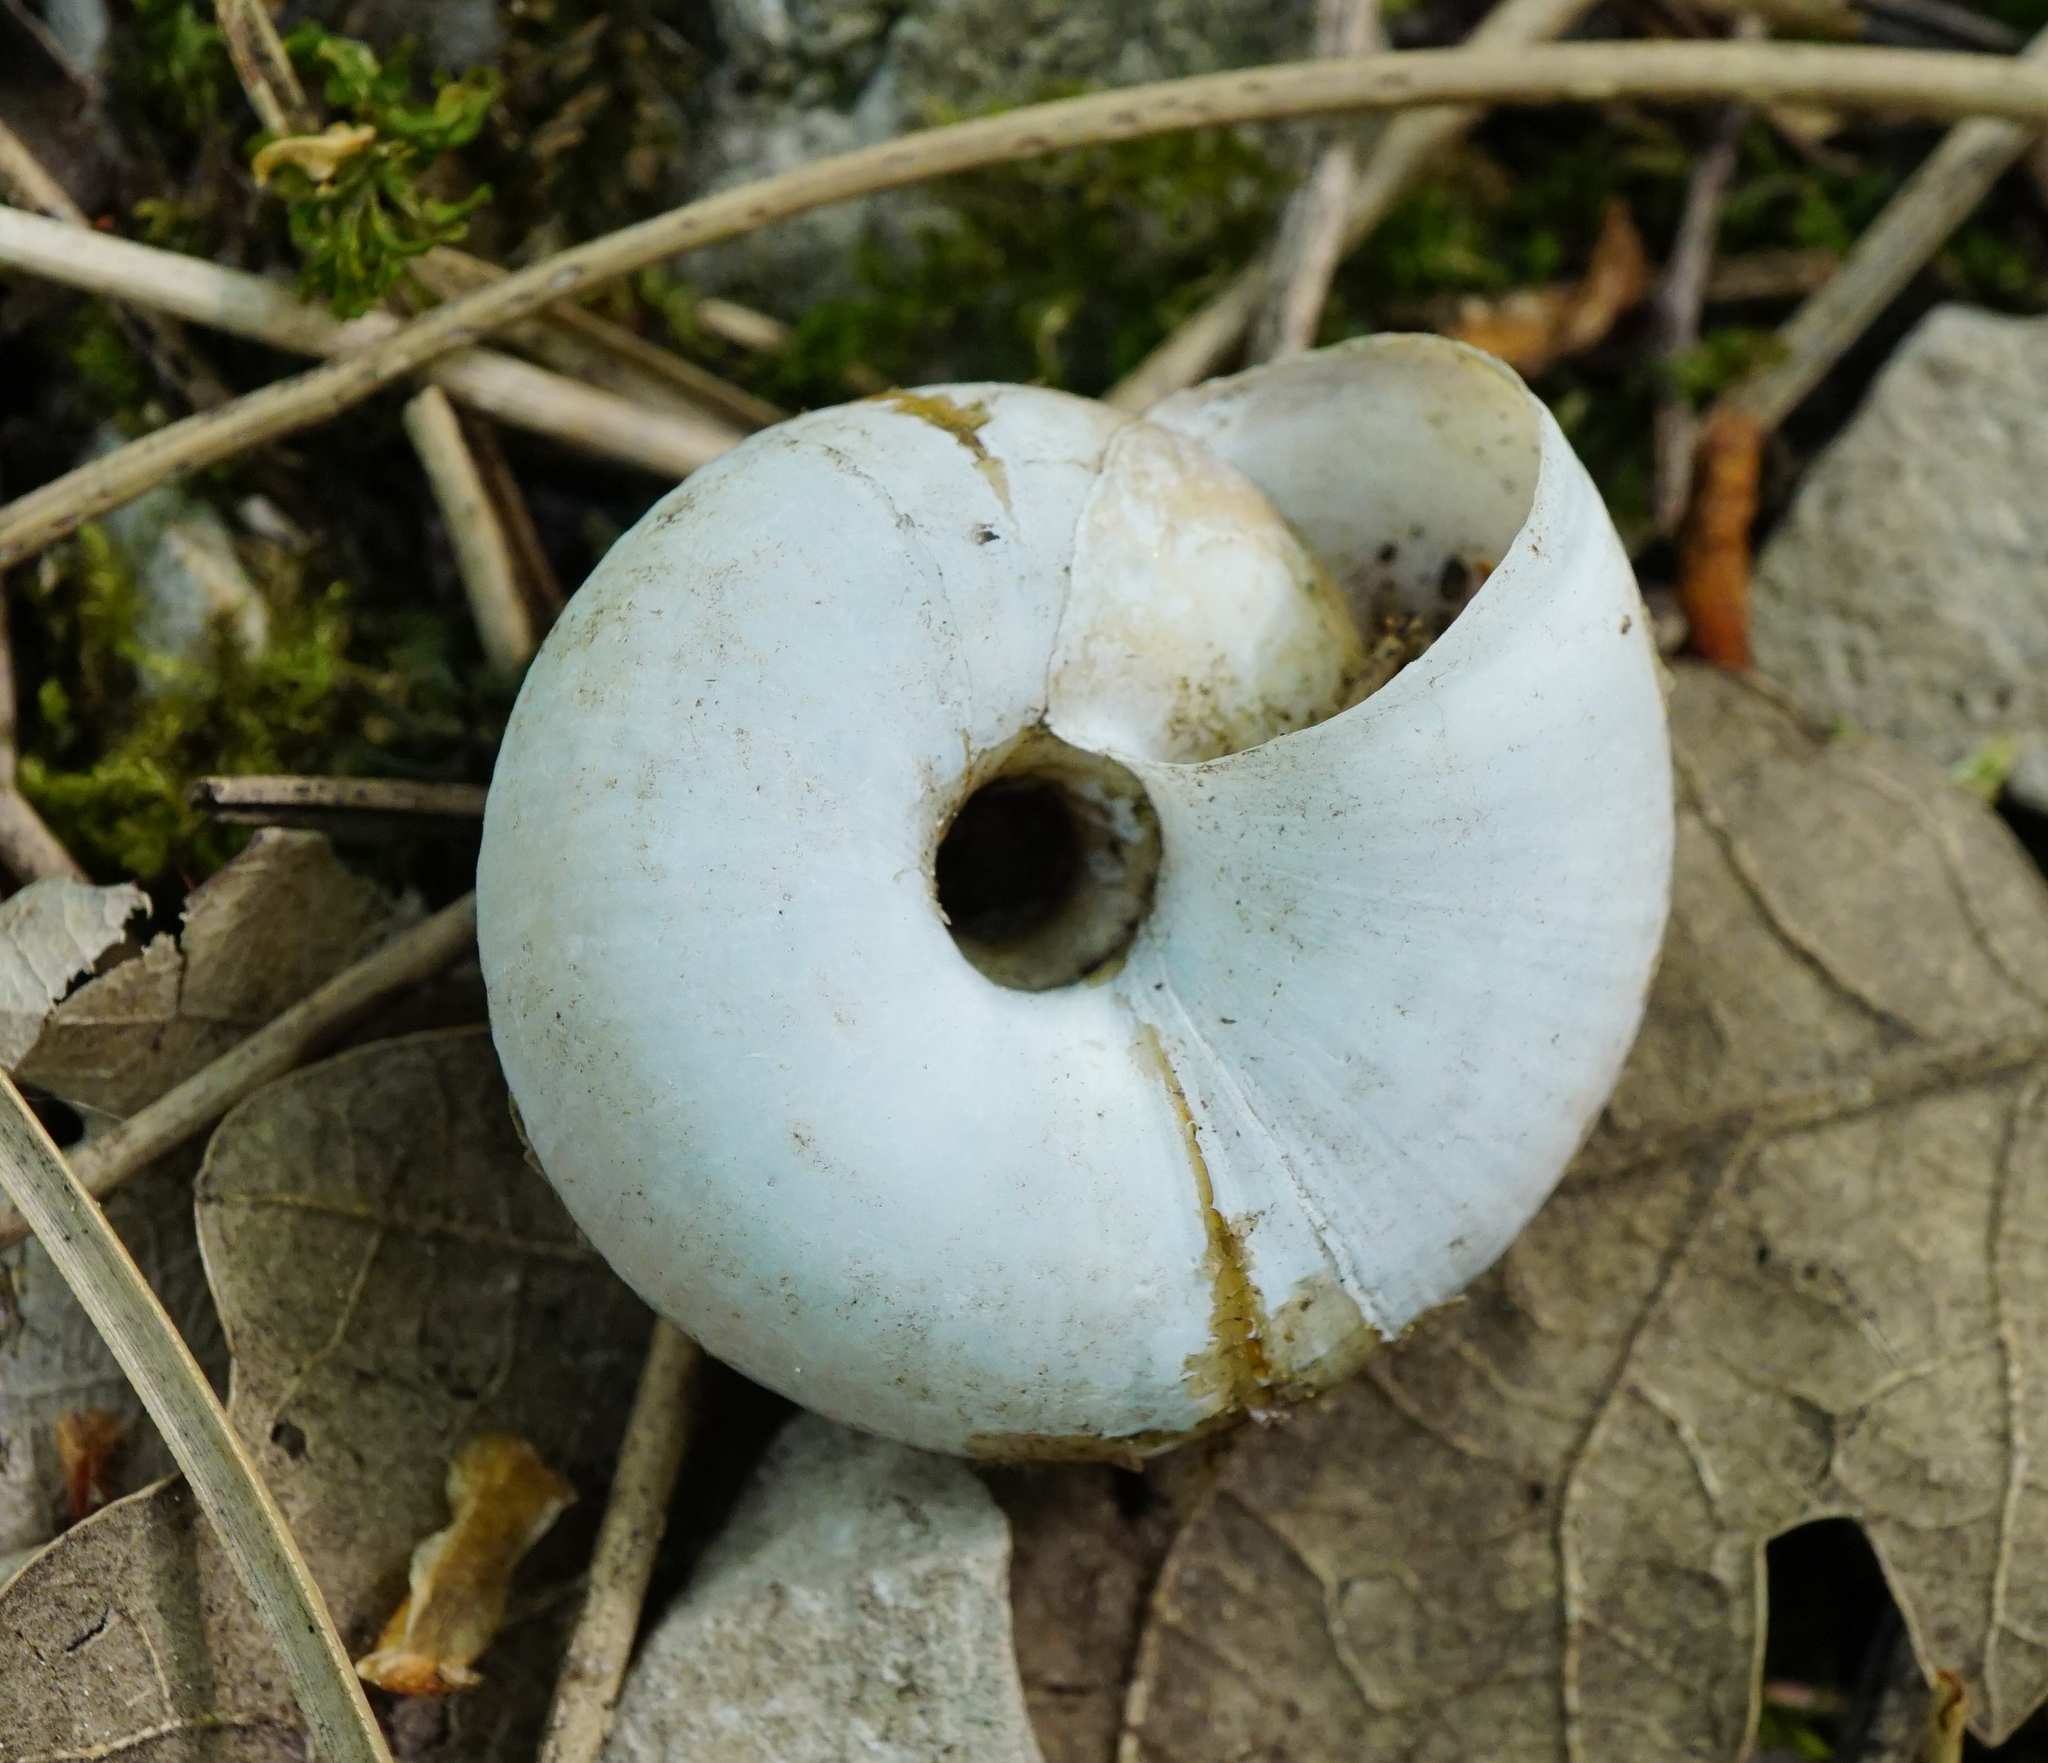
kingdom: Animalia
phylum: Mollusca
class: Gastropoda
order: Stylommatophora
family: Zonitidae
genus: Aegopis
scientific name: Aegopis verticillus
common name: Giant glass snail
